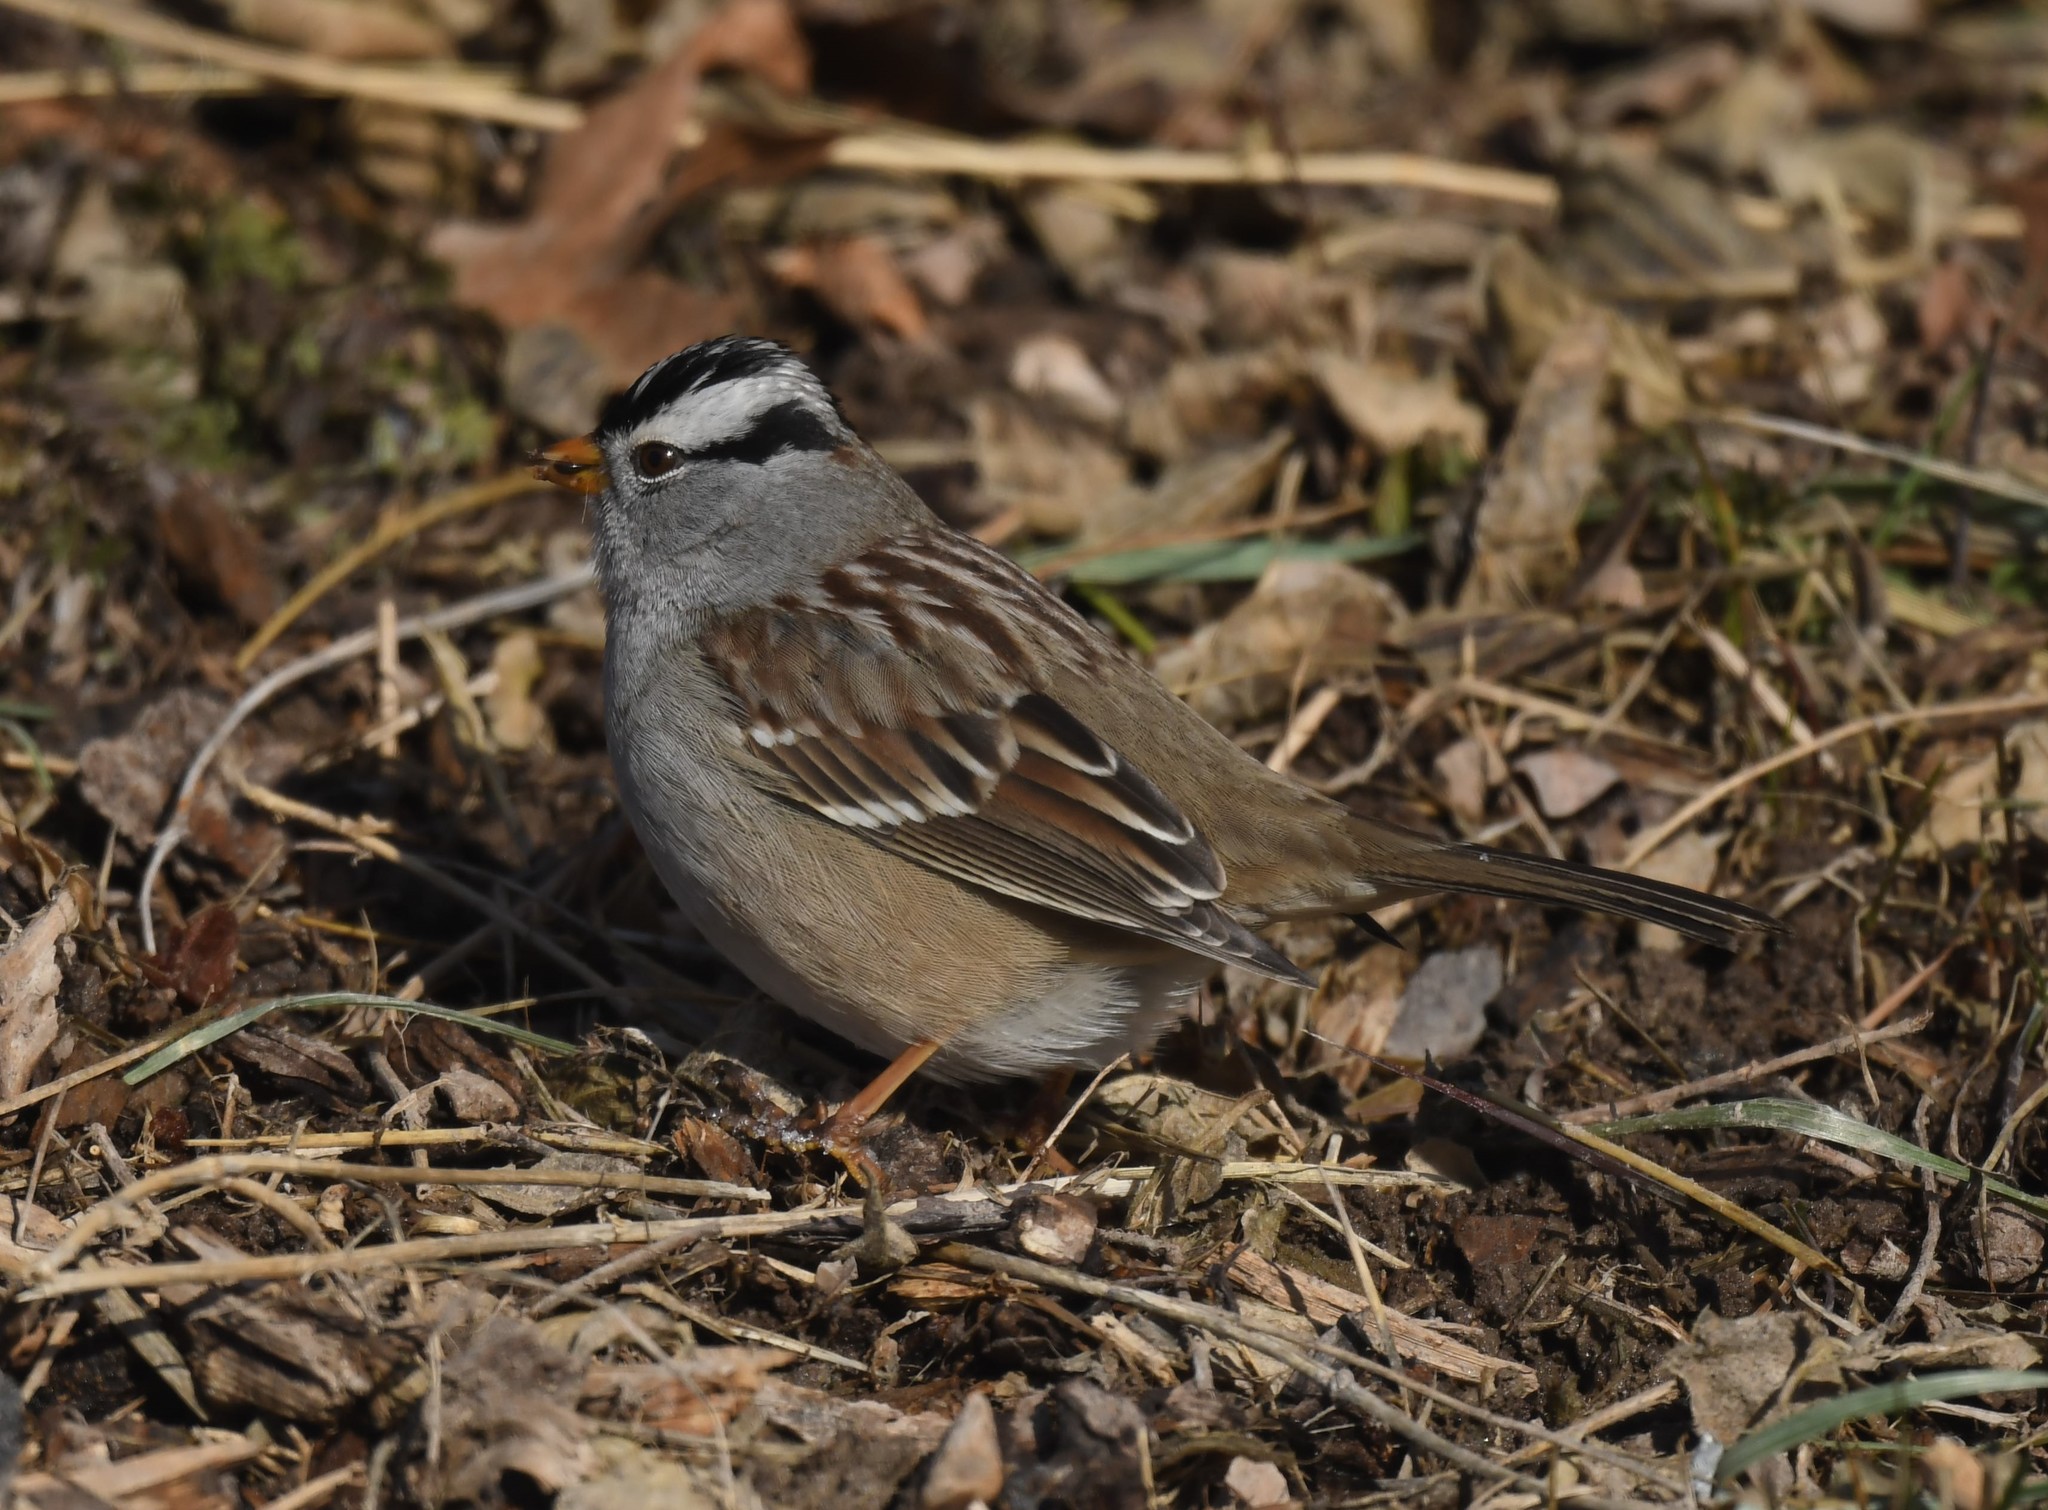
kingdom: Animalia
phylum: Chordata
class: Aves
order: Passeriformes
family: Passerellidae
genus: Zonotrichia
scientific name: Zonotrichia leucophrys
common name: White-crowned sparrow
